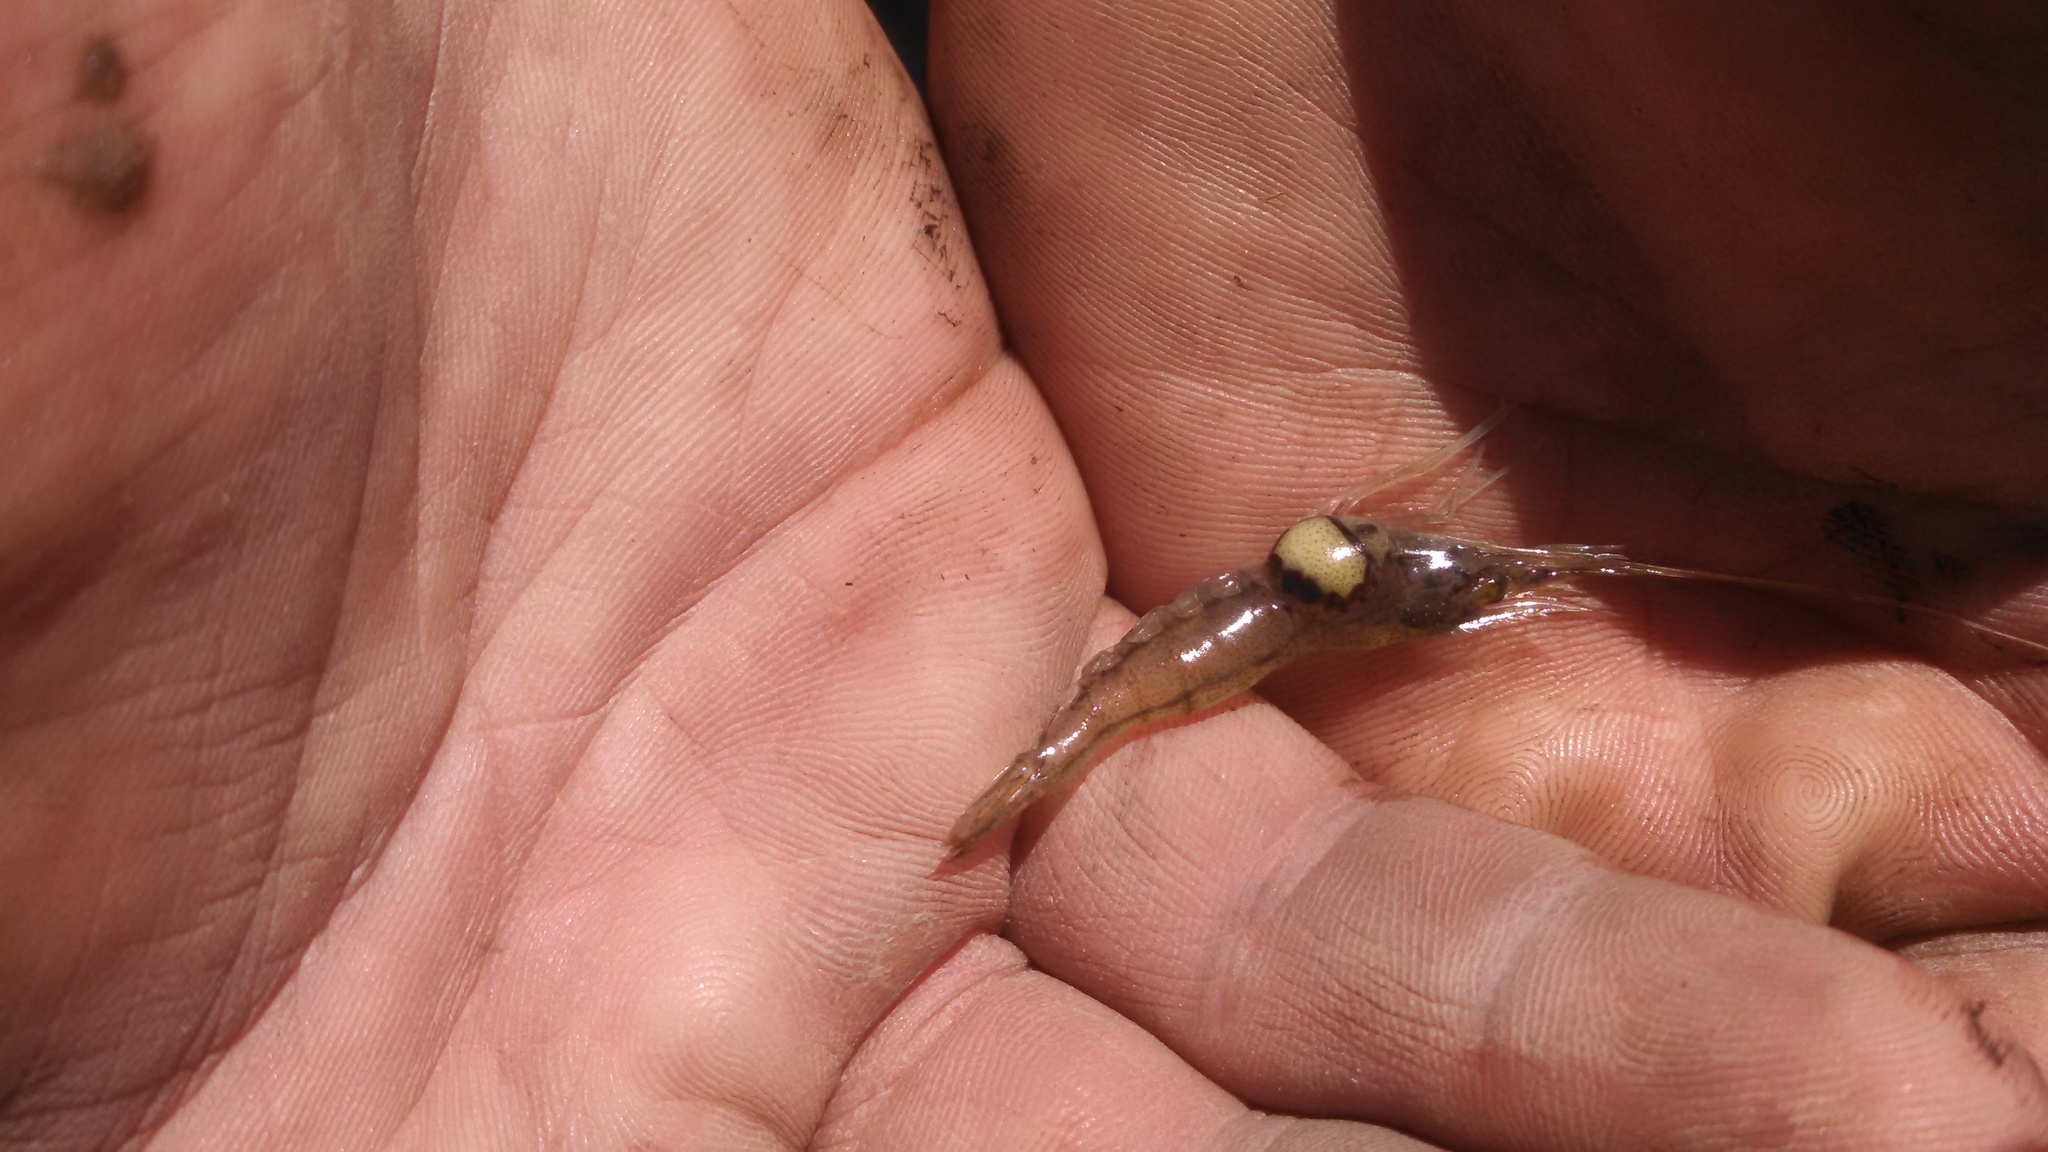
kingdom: Animalia
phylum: Arthropoda
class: Malacostraca
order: Isopoda
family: Bopyridae
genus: Probopyrus
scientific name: Probopyrus pandalicola
